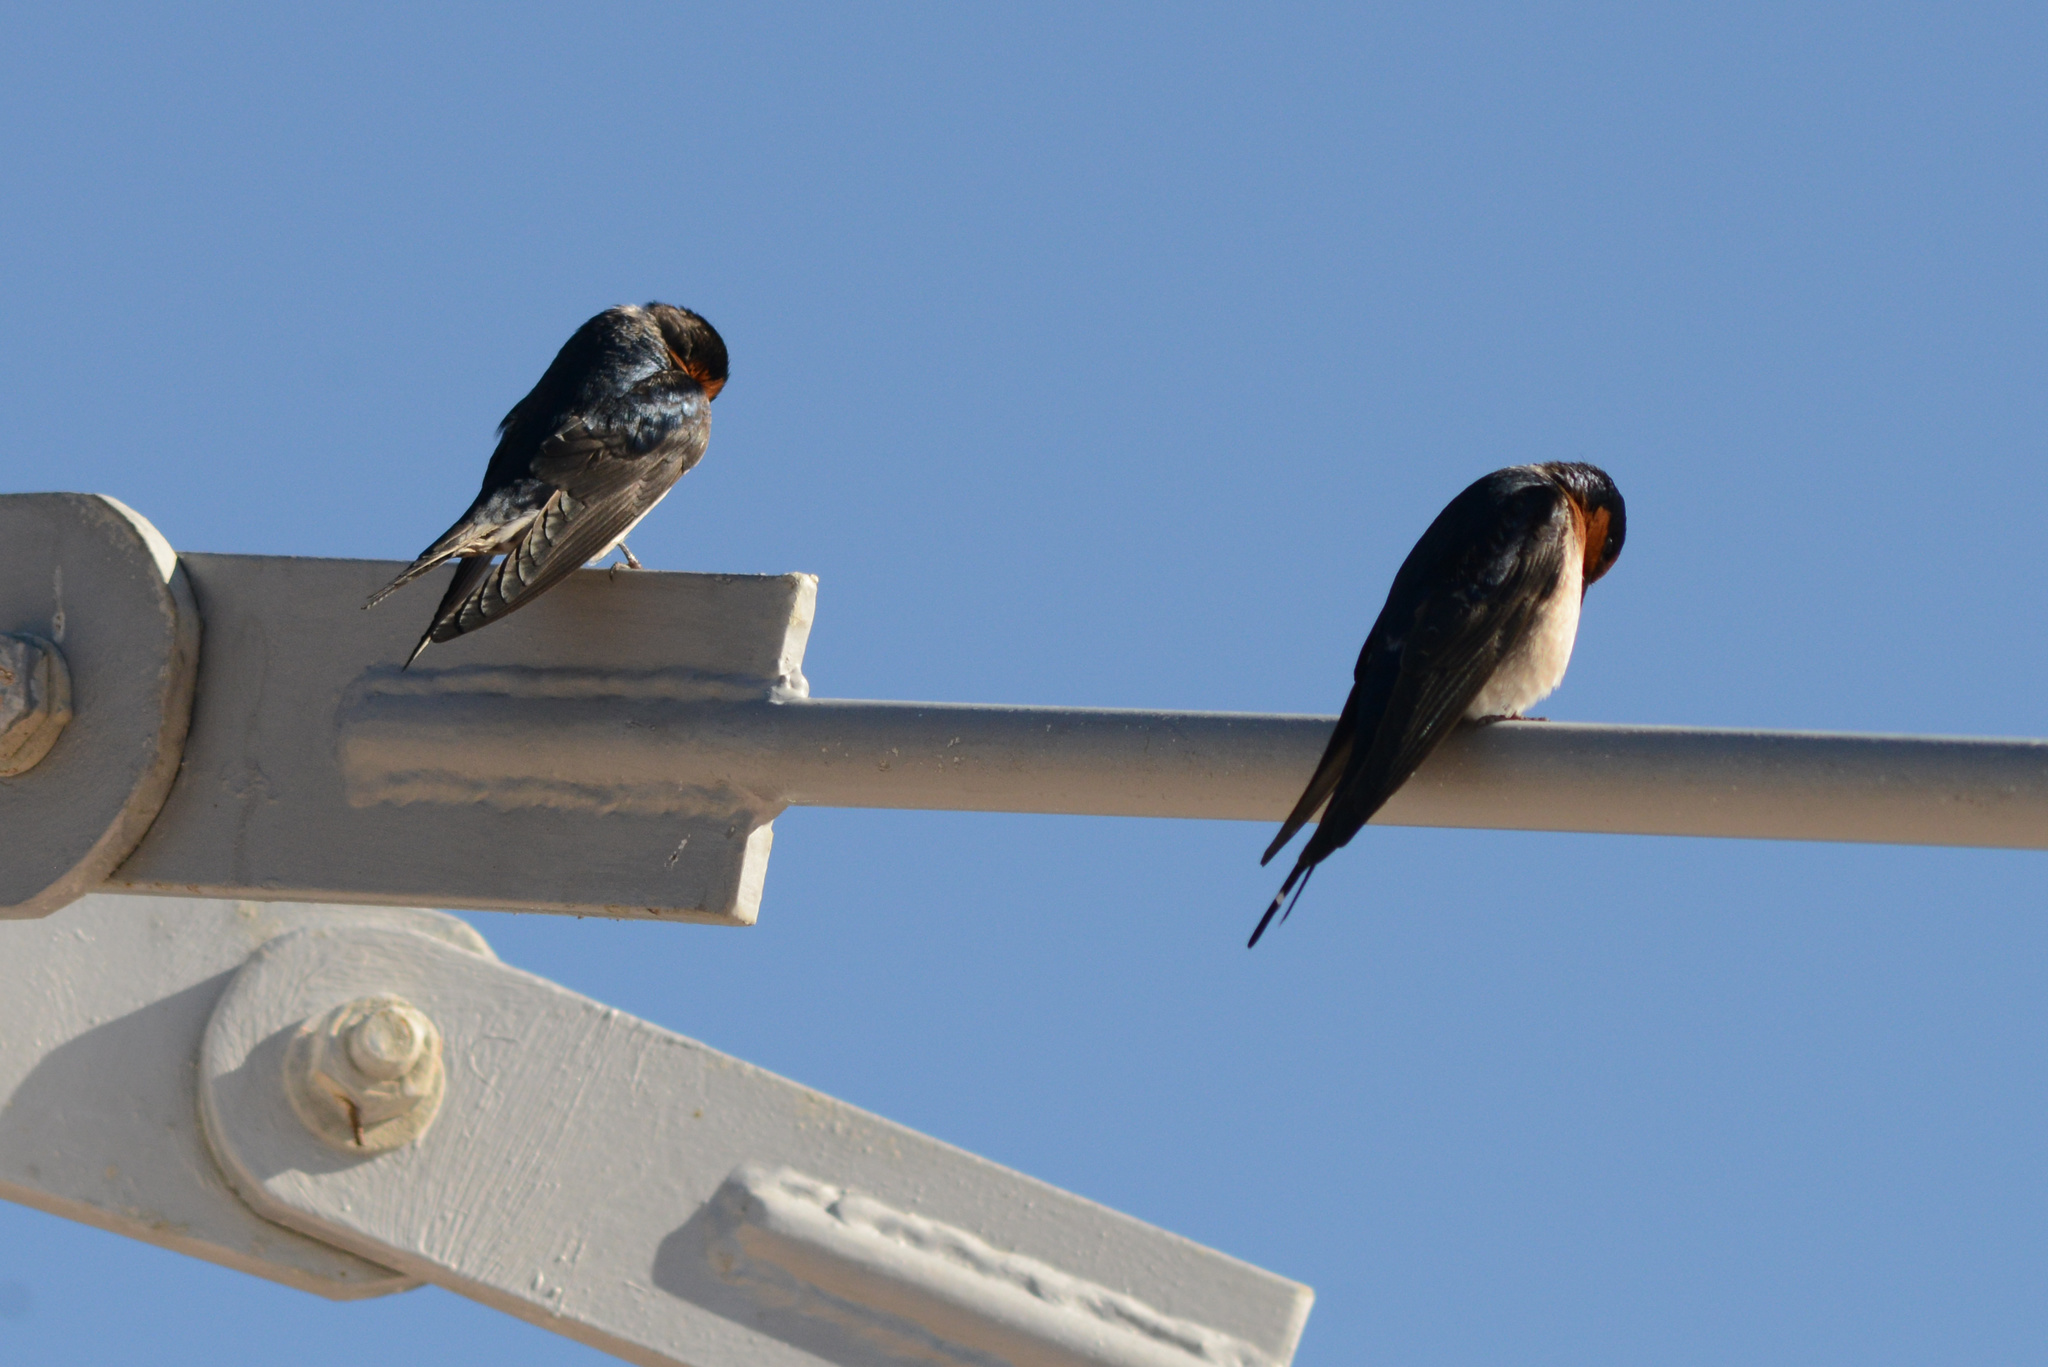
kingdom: Animalia
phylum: Chordata
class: Aves
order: Passeriformes
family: Hirundinidae
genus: Hirundo
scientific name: Hirundo neoxena
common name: Welcome swallow
